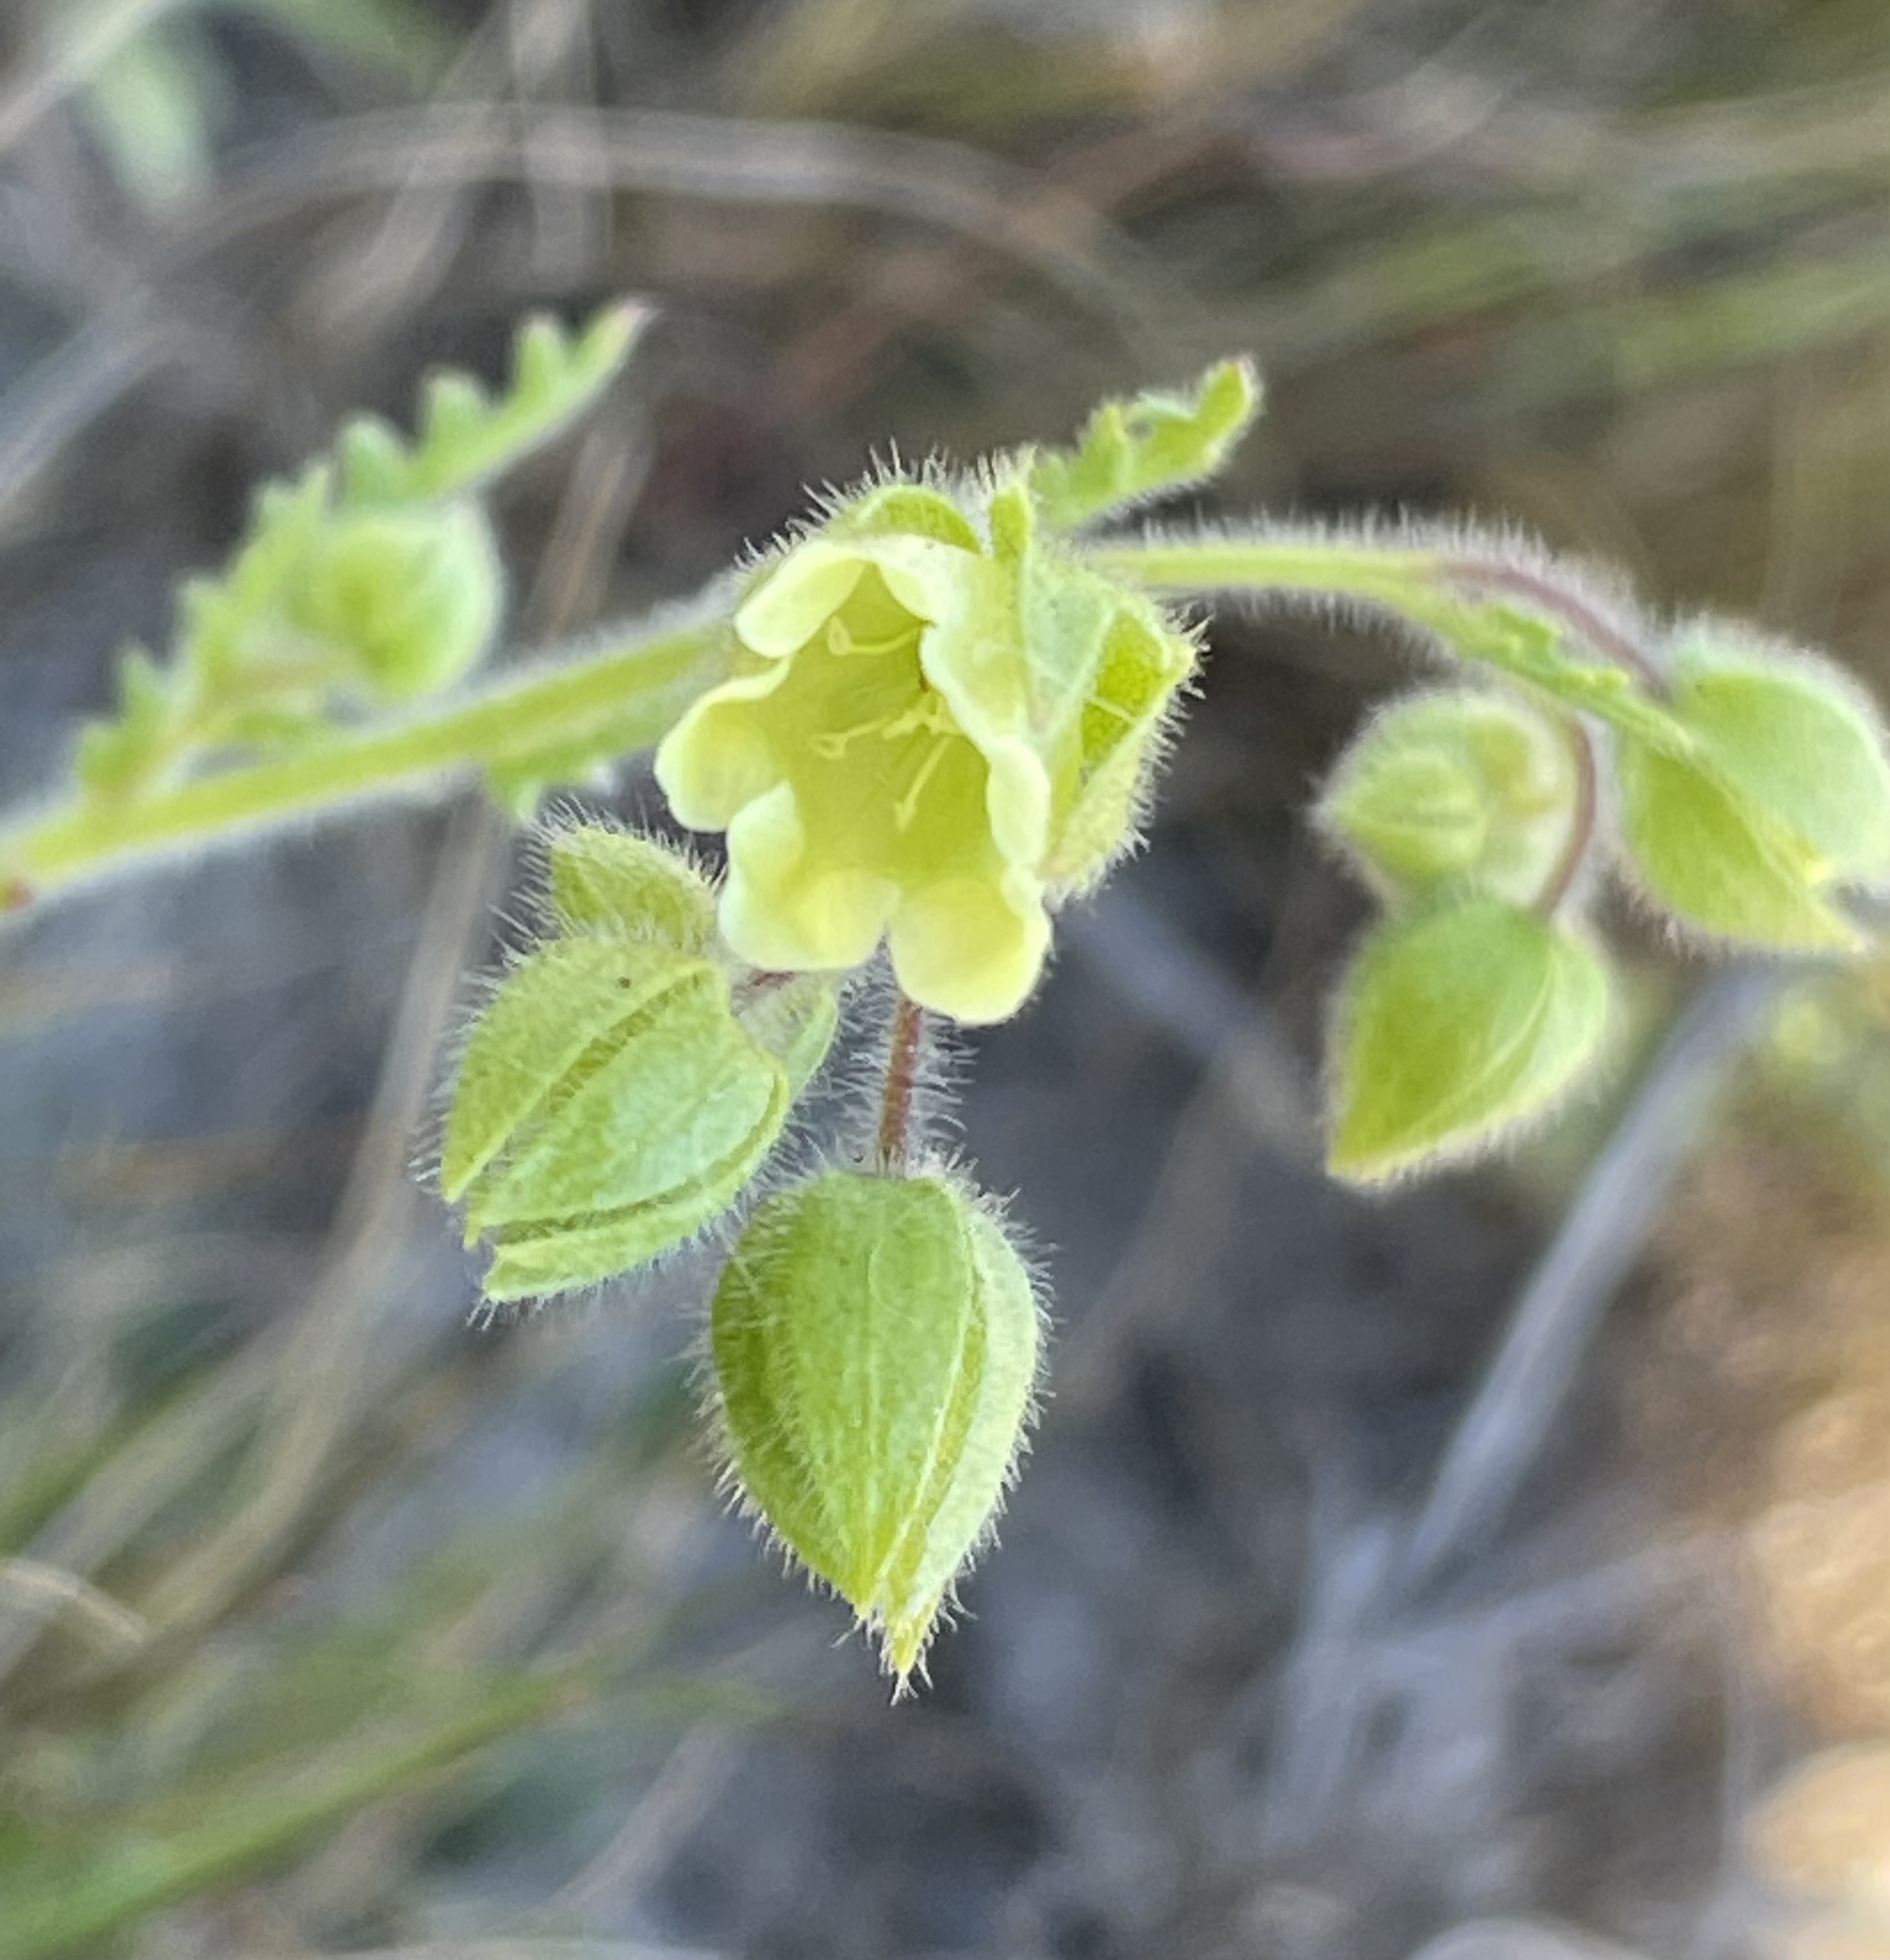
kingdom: Plantae
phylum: Tracheophyta
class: Magnoliopsida
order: Boraginales
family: Hydrophyllaceae
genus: Emmenanthe
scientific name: Emmenanthe penduliflora
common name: Whispering-bells
